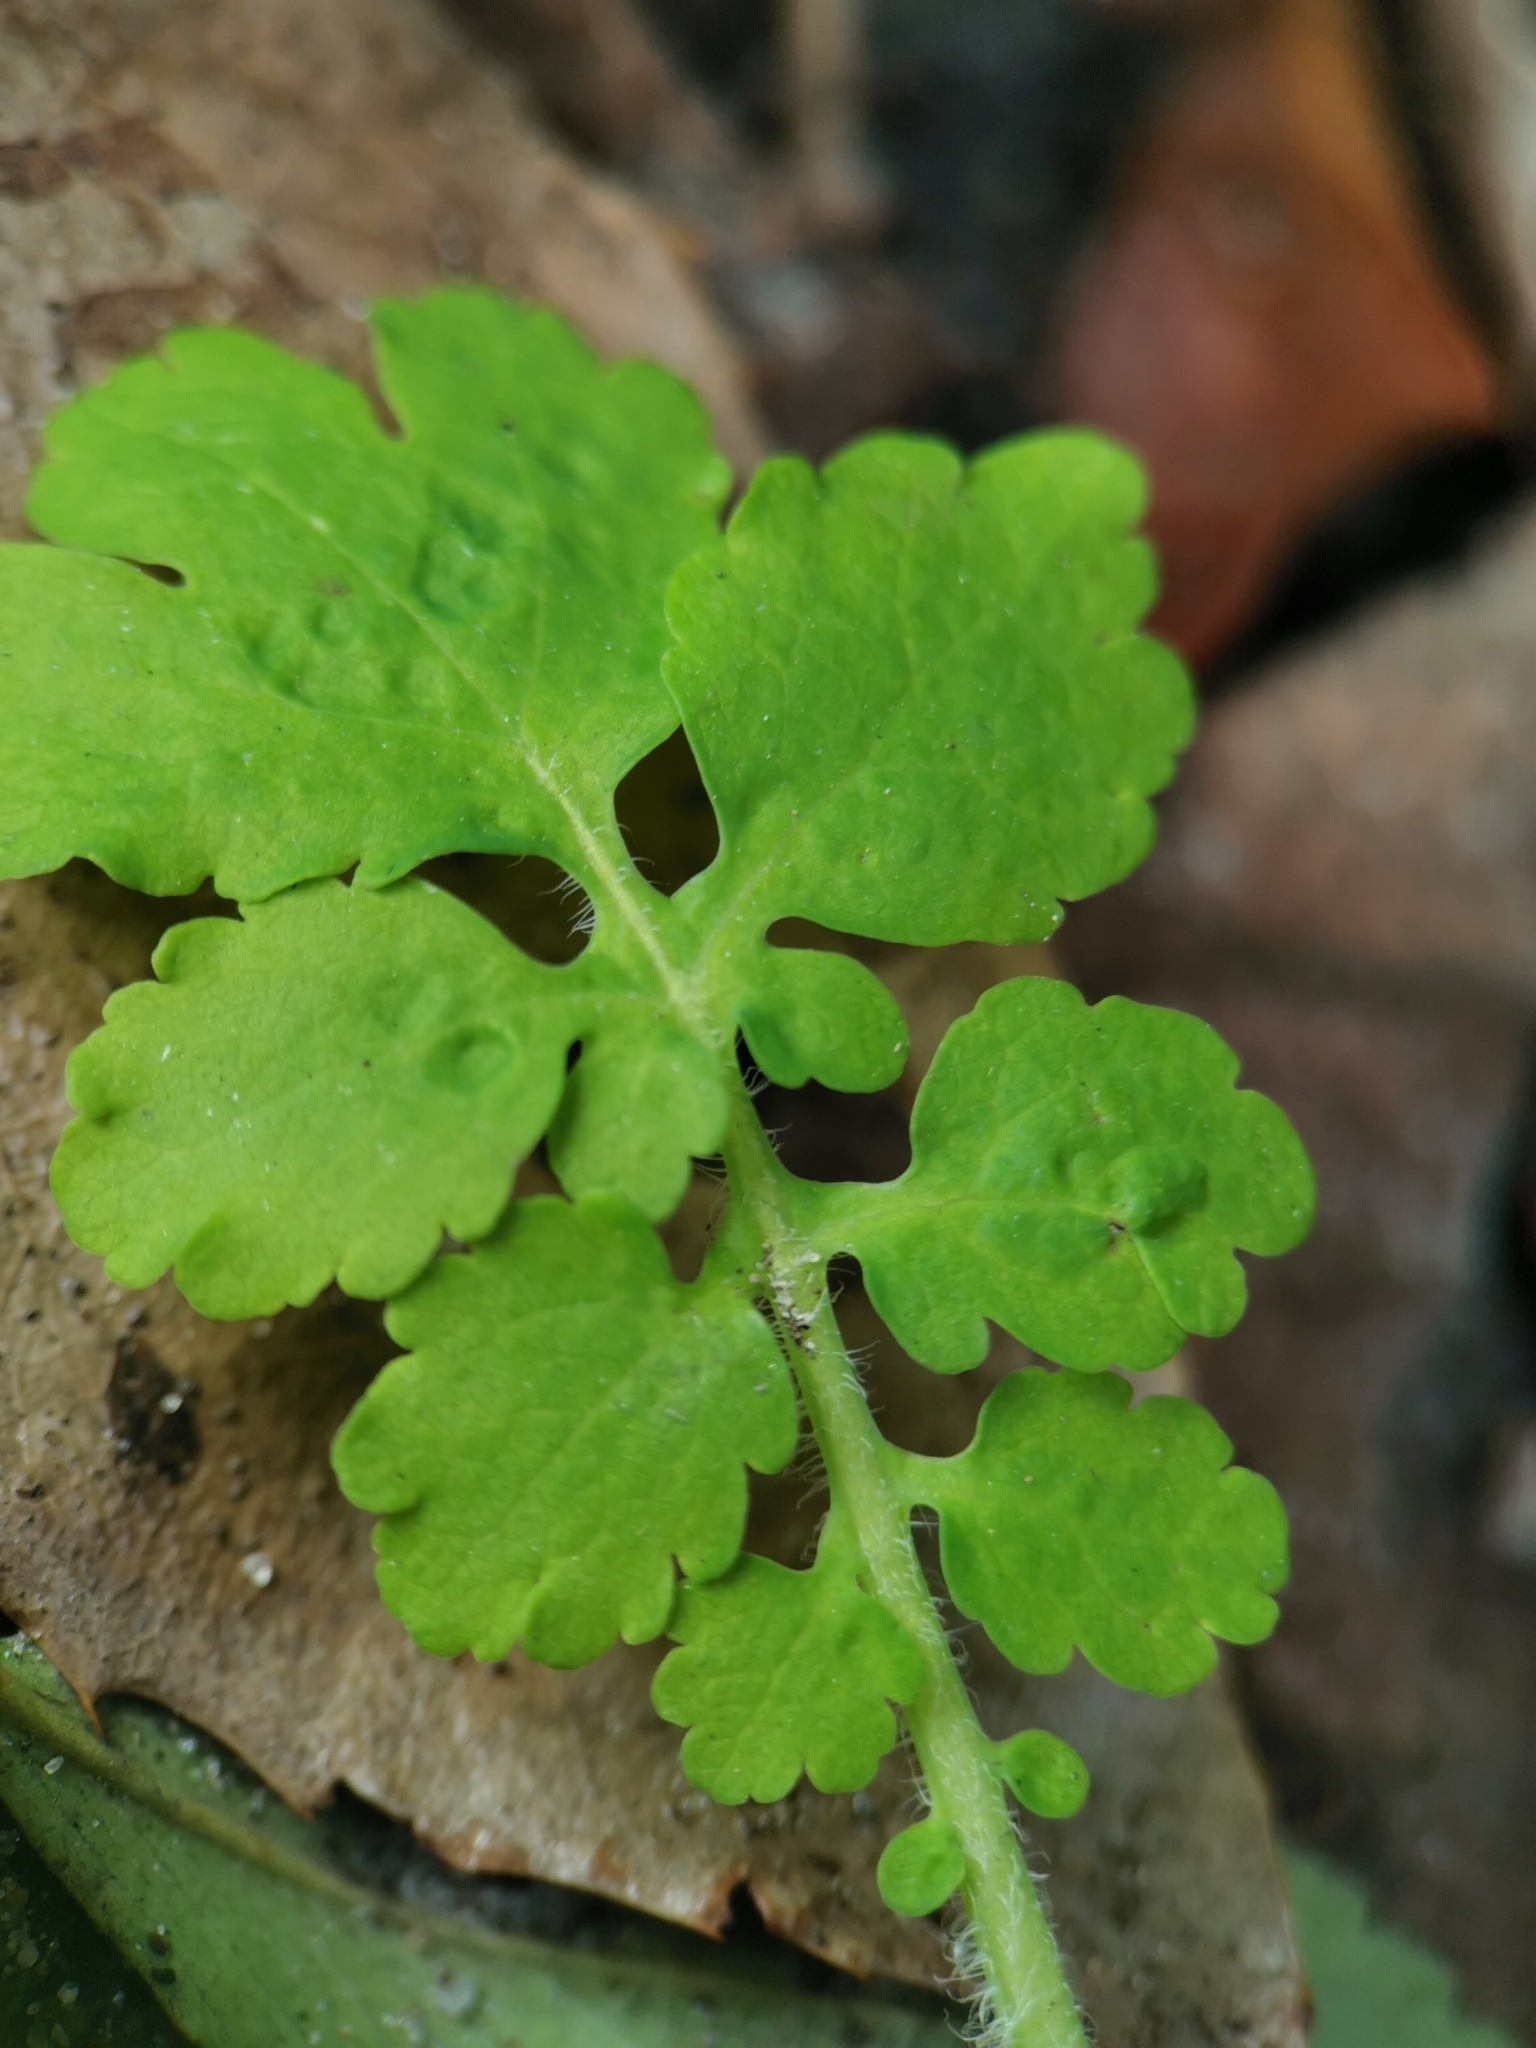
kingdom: Plantae
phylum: Tracheophyta
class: Magnoliopsida
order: Ranunculales
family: Papaveraceae
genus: Chelidonium
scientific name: Chelidonium majus
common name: Greater celandine
